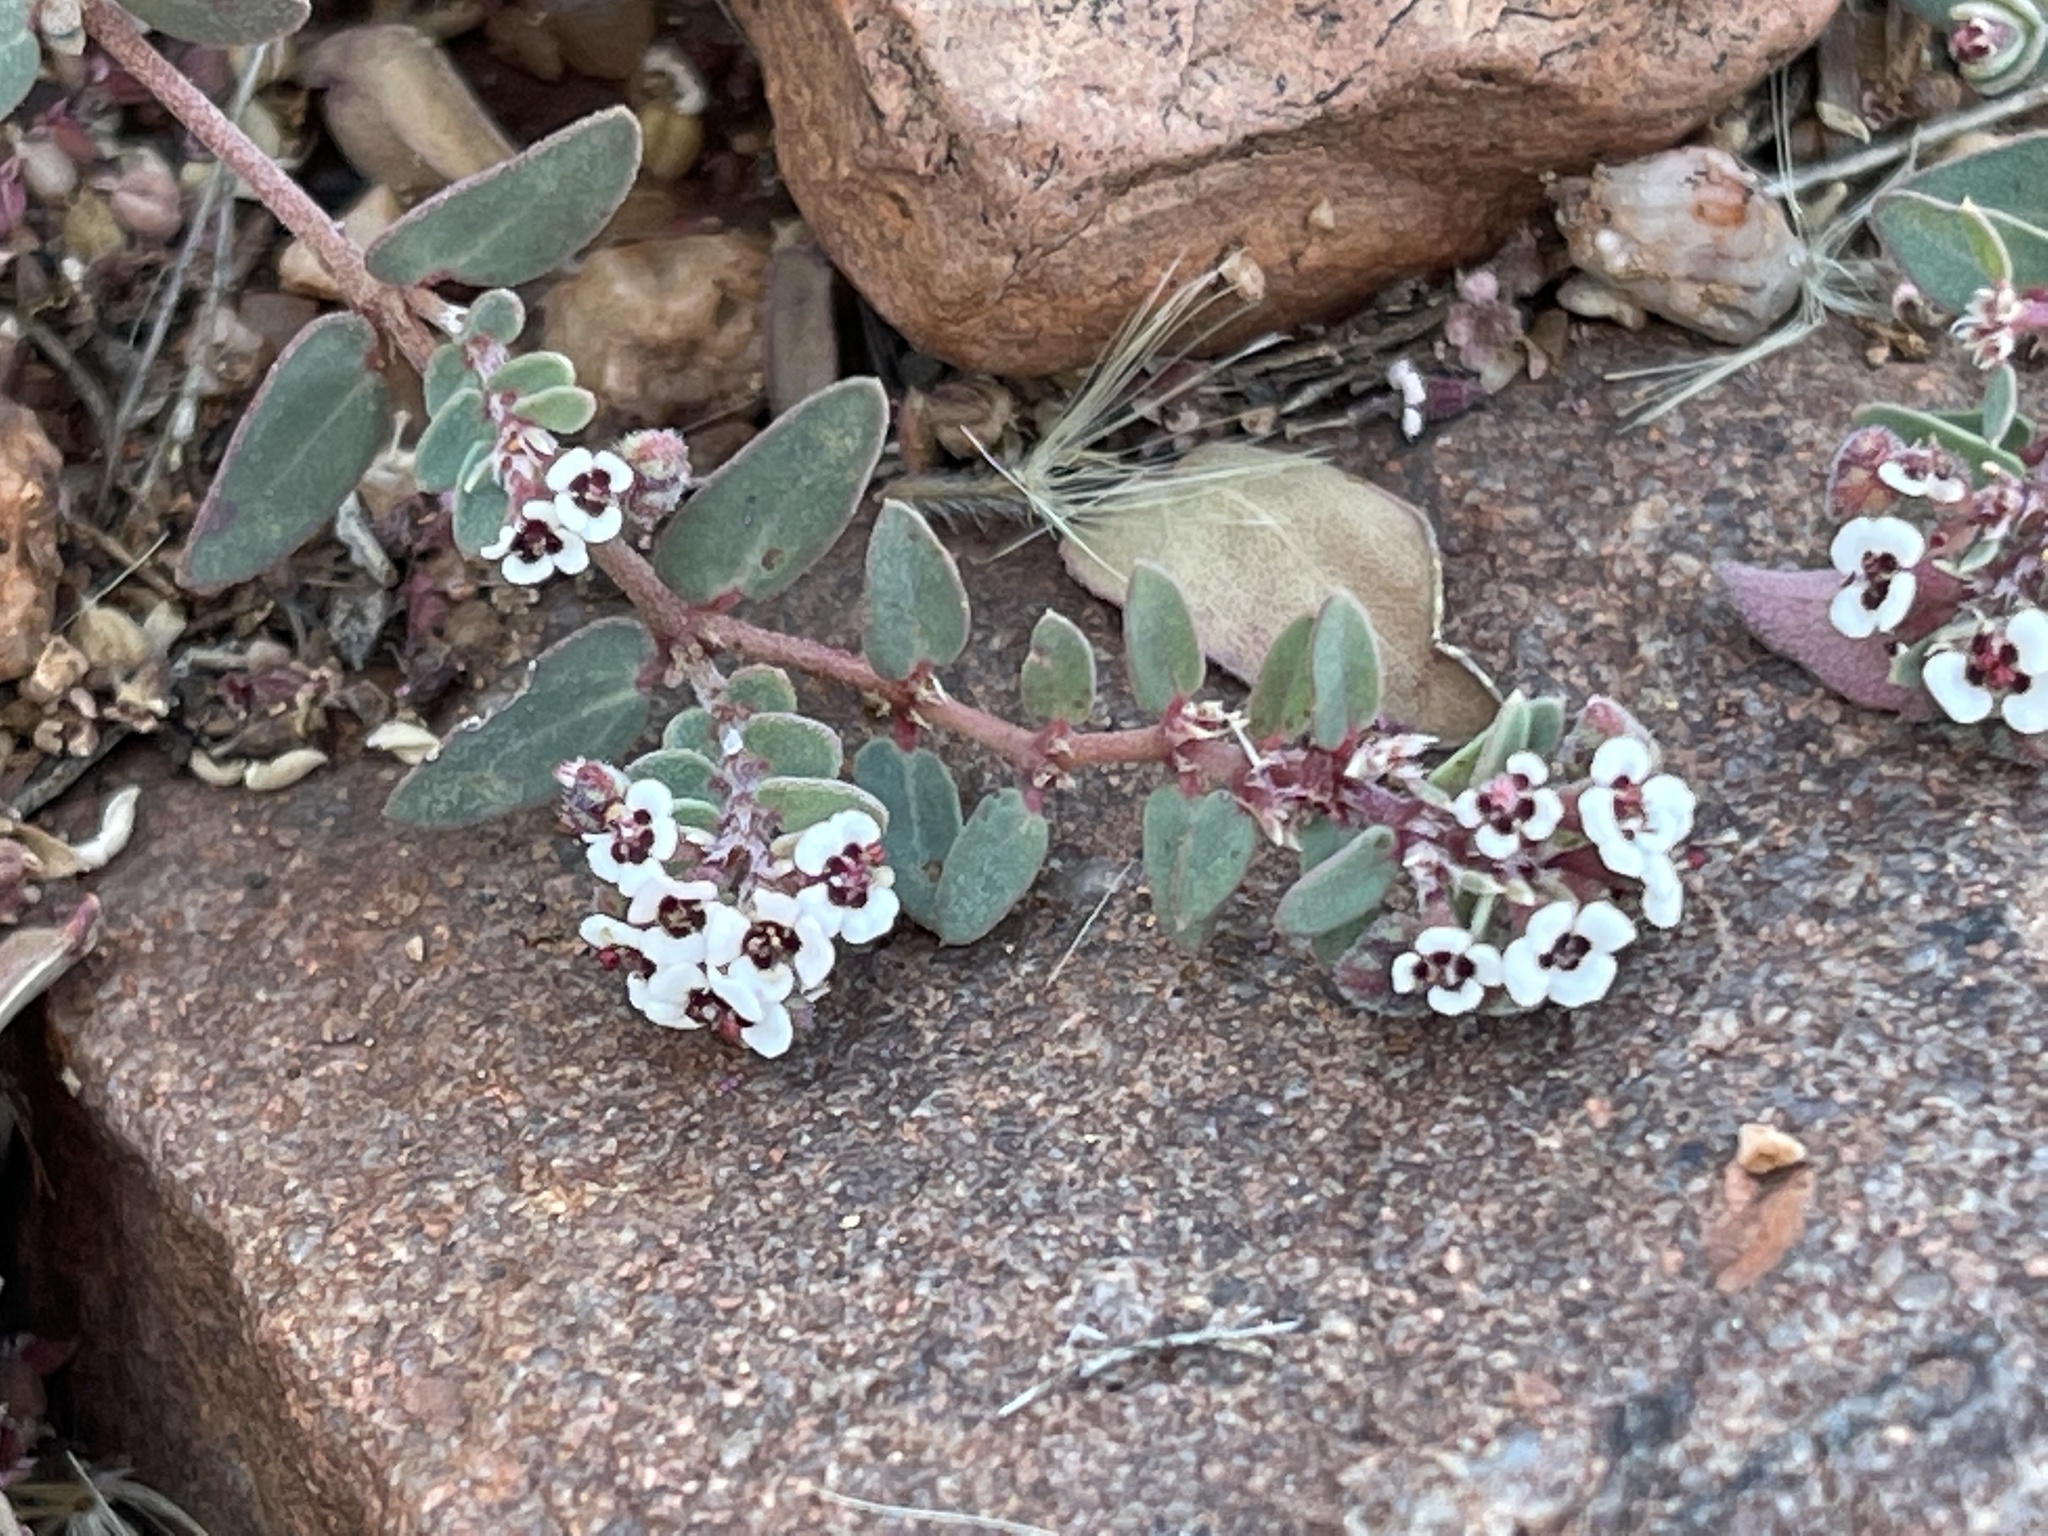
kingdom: Plantae
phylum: Tracheophyta
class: Magnoliopsida
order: Malpighiales
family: Euphorbiaceae
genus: Euphorbia
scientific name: Euphorbia capitellata
